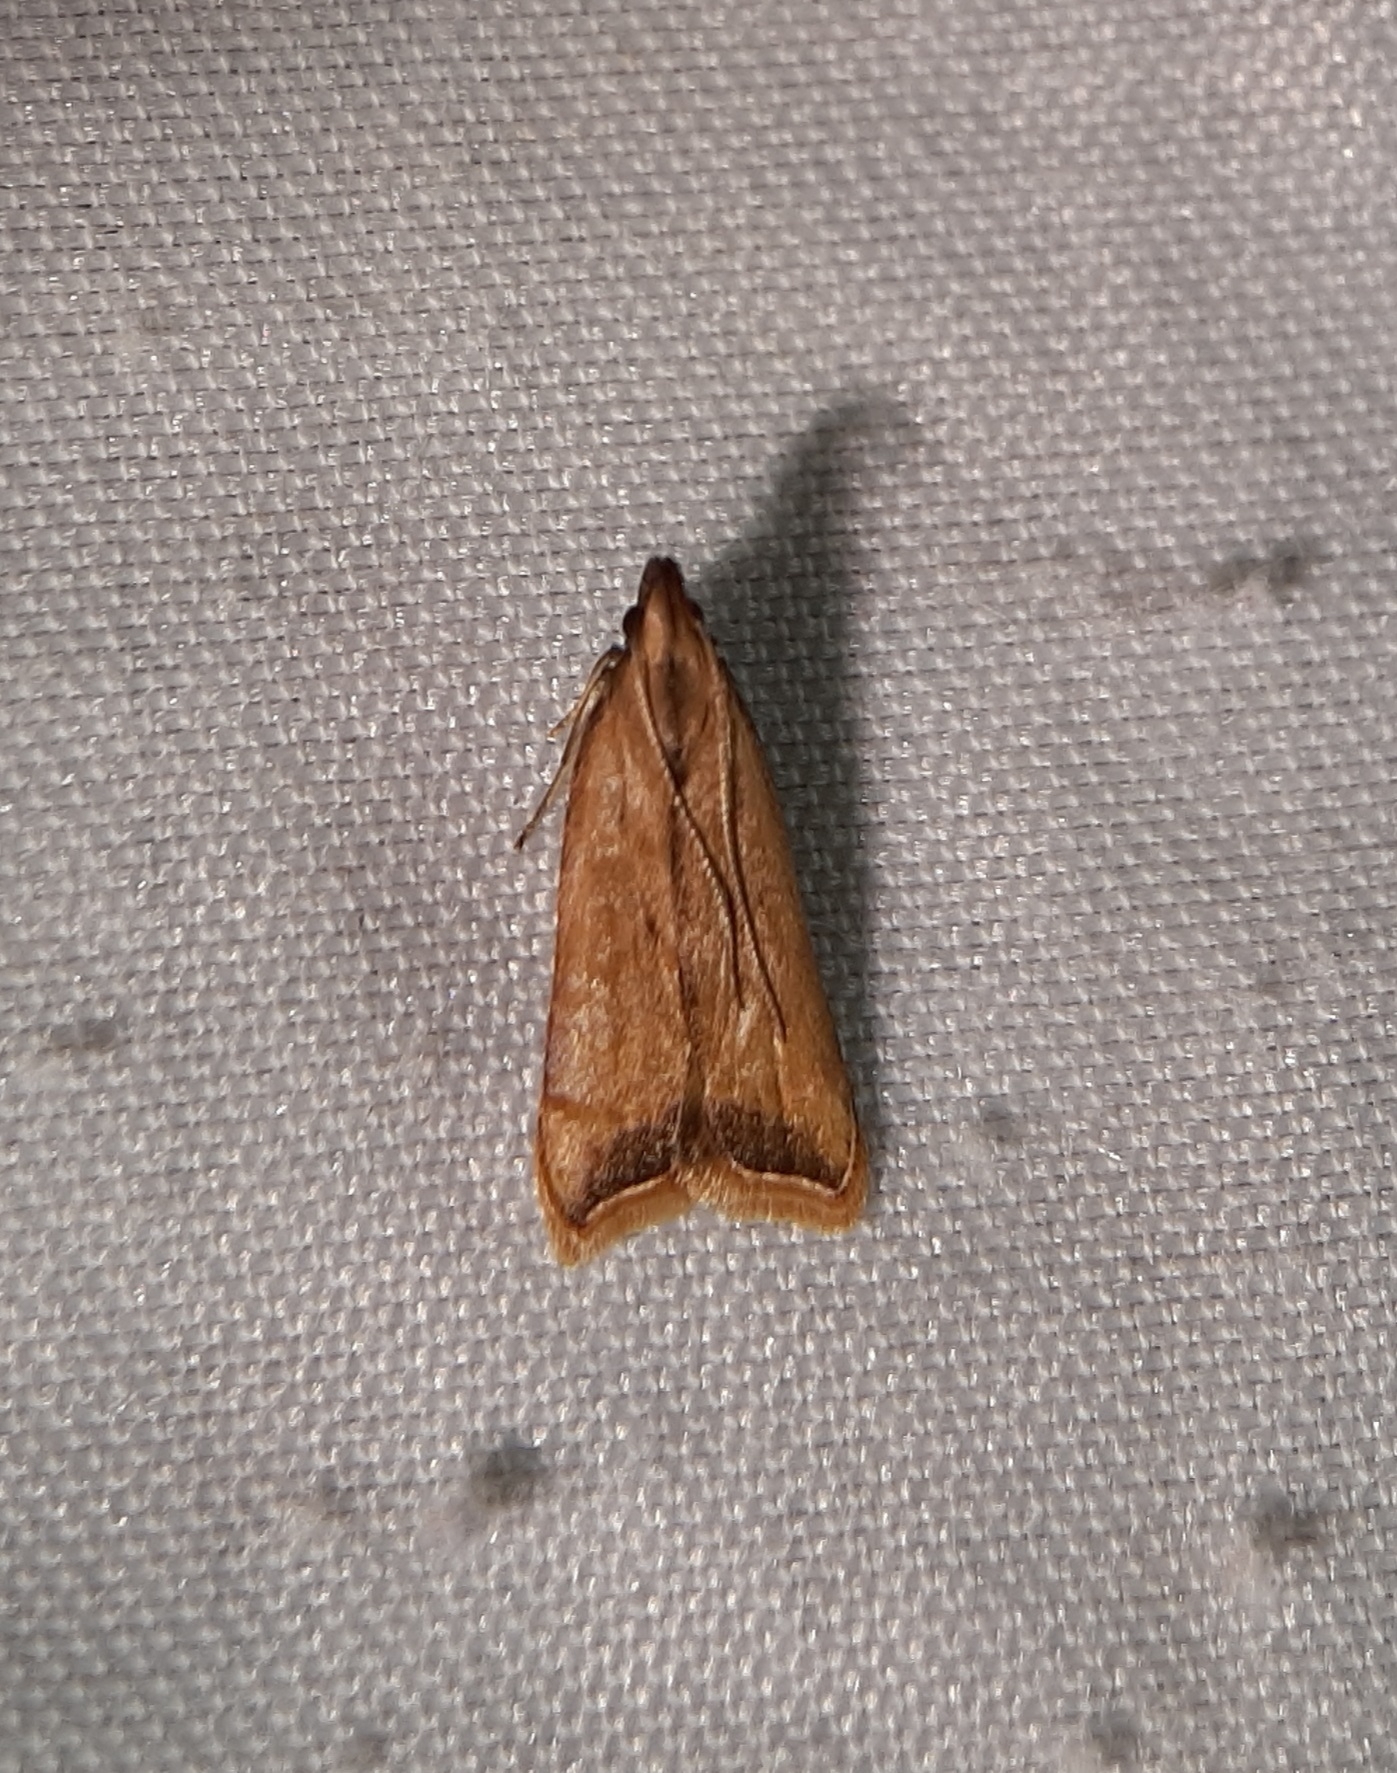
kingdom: Animalia
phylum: Arthropoda
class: Insecta
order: Lepidoptera
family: Gelechiidae
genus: Dichomeris
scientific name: Dichomeris heriguronis
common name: Black-edged dichomeris moth
